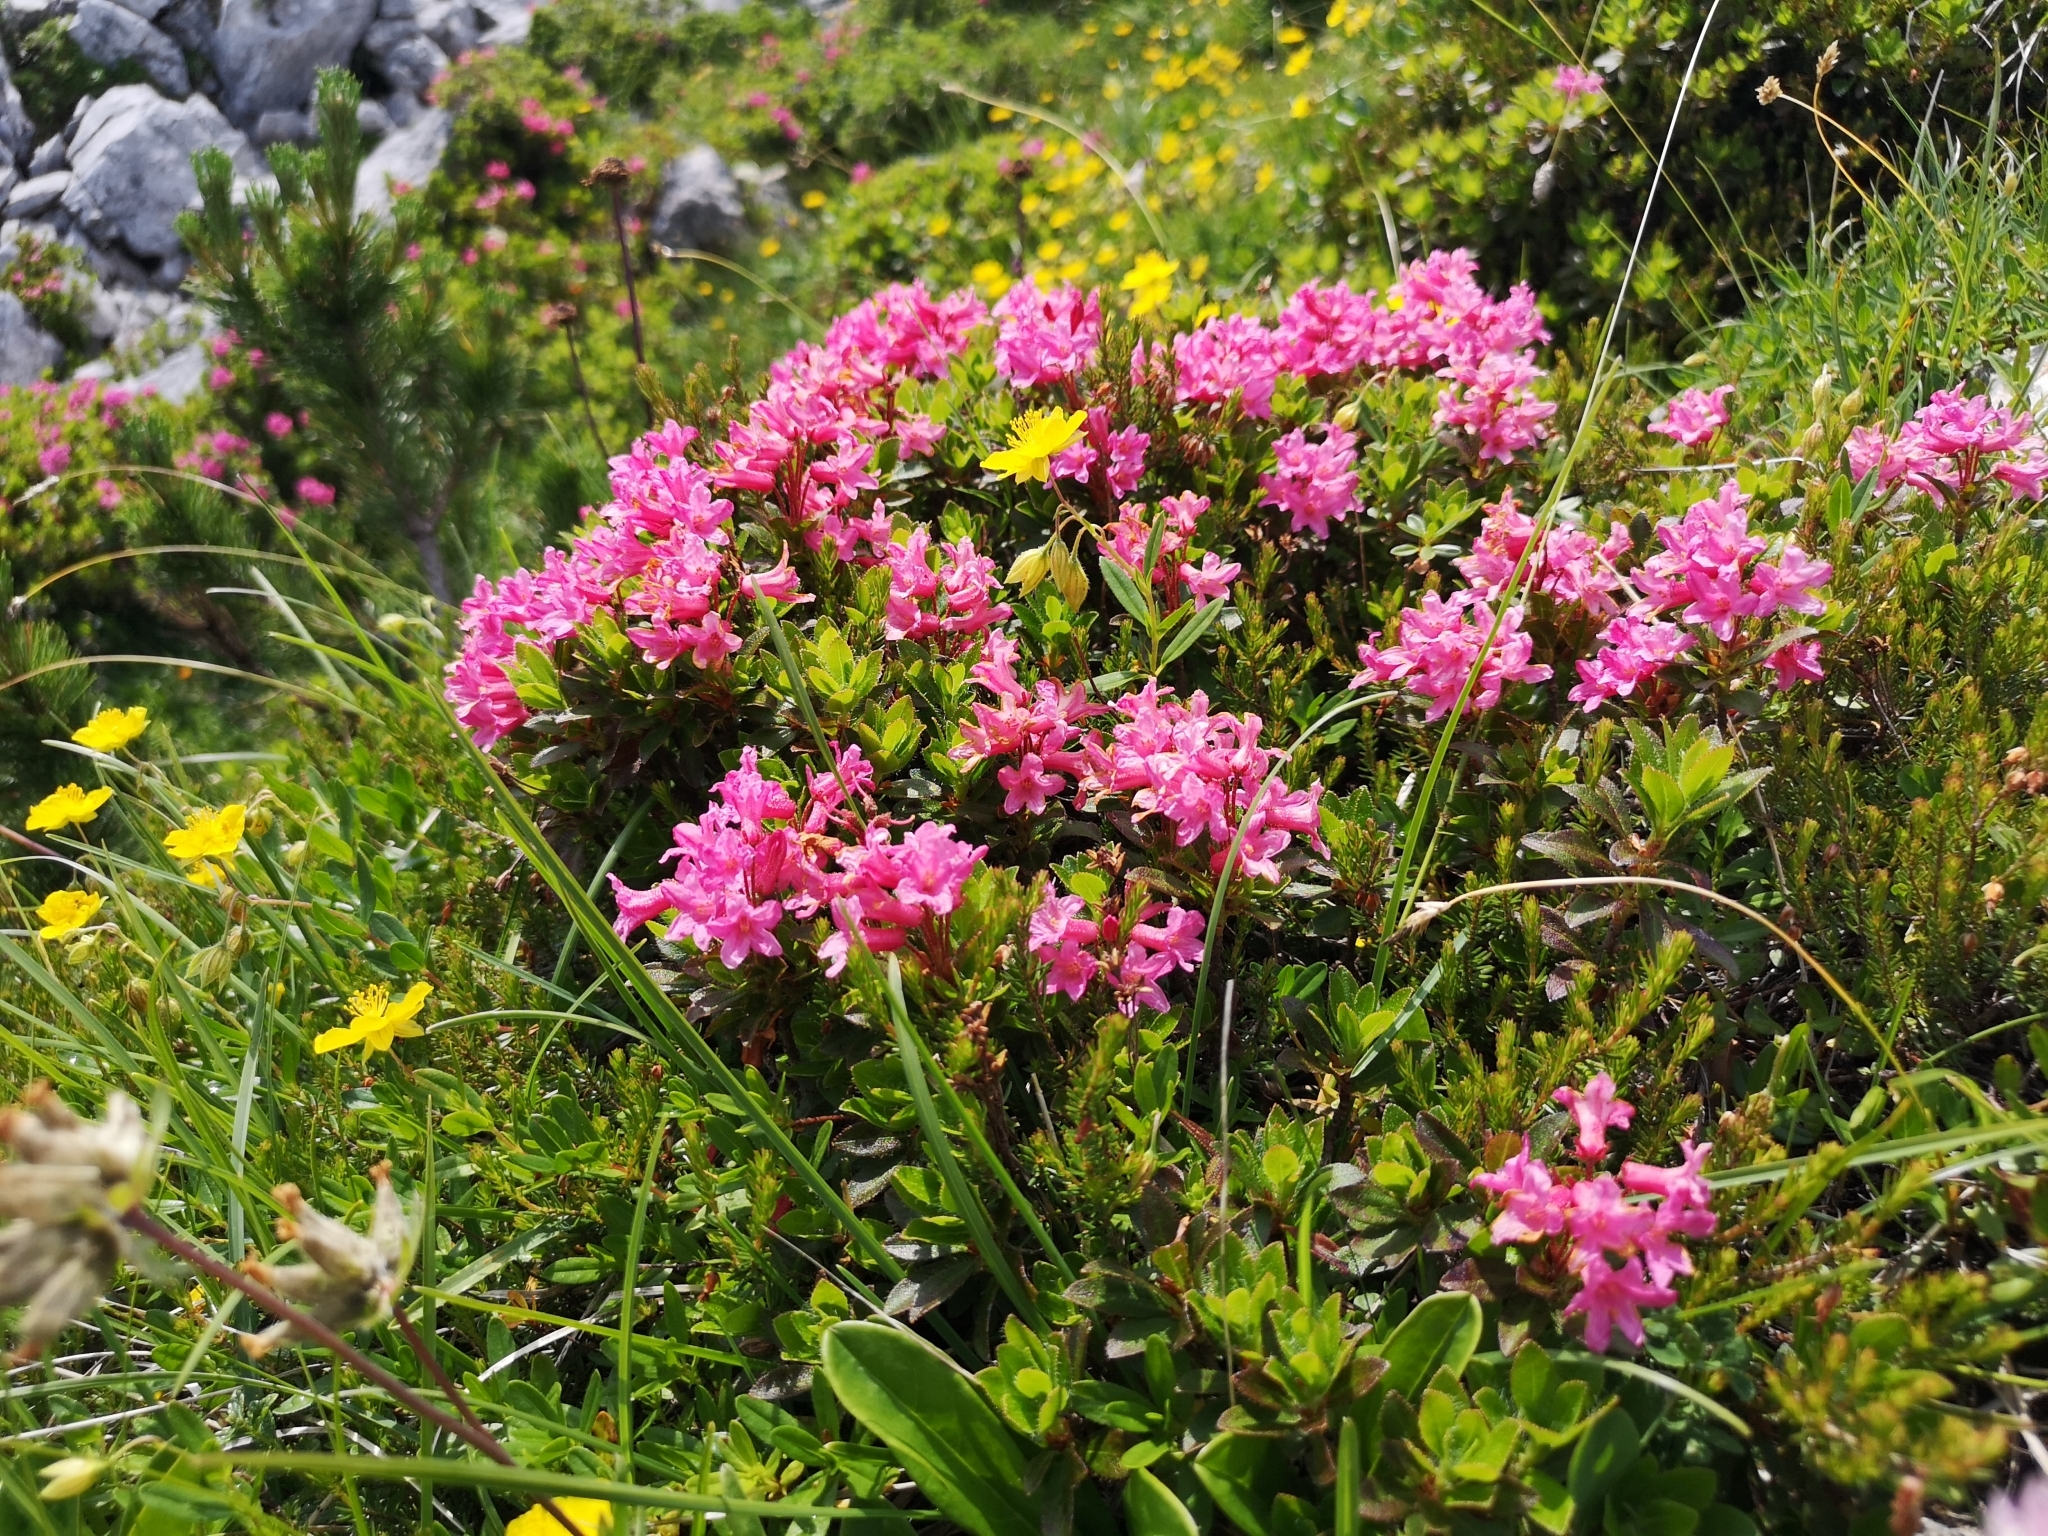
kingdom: Plantae
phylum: Tracheophyta
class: Magnoliopsida
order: Ericales
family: Ericaceae
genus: Rhododendron
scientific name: Rhododendron hirsutum
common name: Hairy alpenrose
